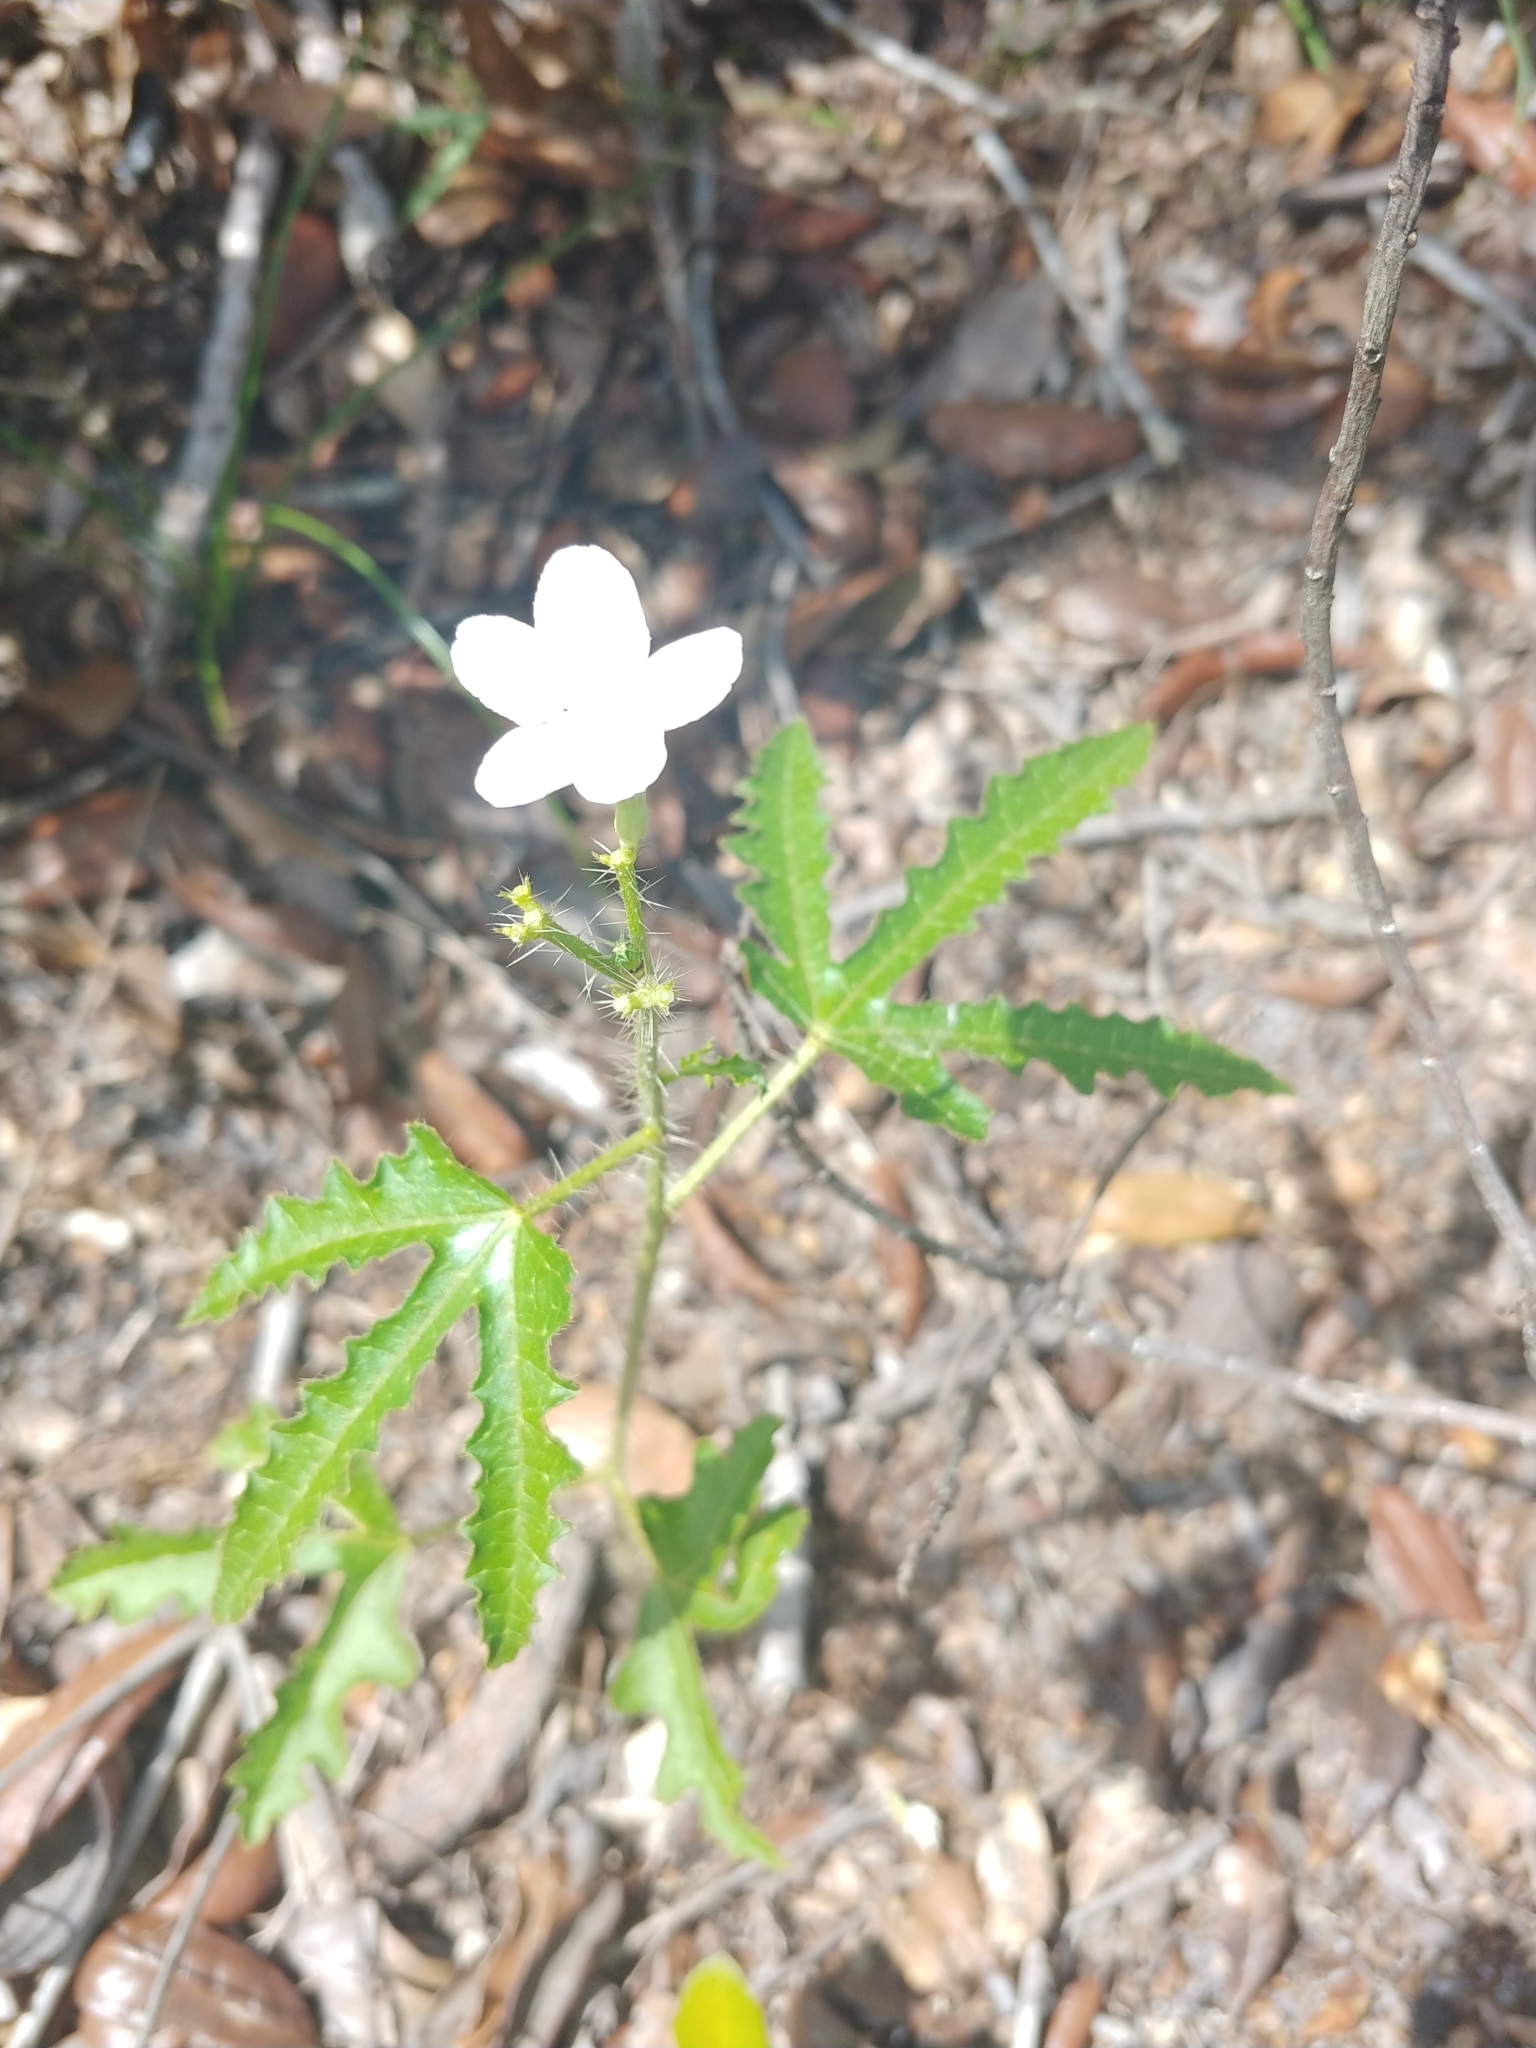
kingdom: Plantae
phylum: Tracheophyta
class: Magnoliopsida
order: Malpighiales
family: Euphorbiaceae
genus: Cnidoscolus
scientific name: Cnidoscolus stimulosus
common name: Bull-nettle
